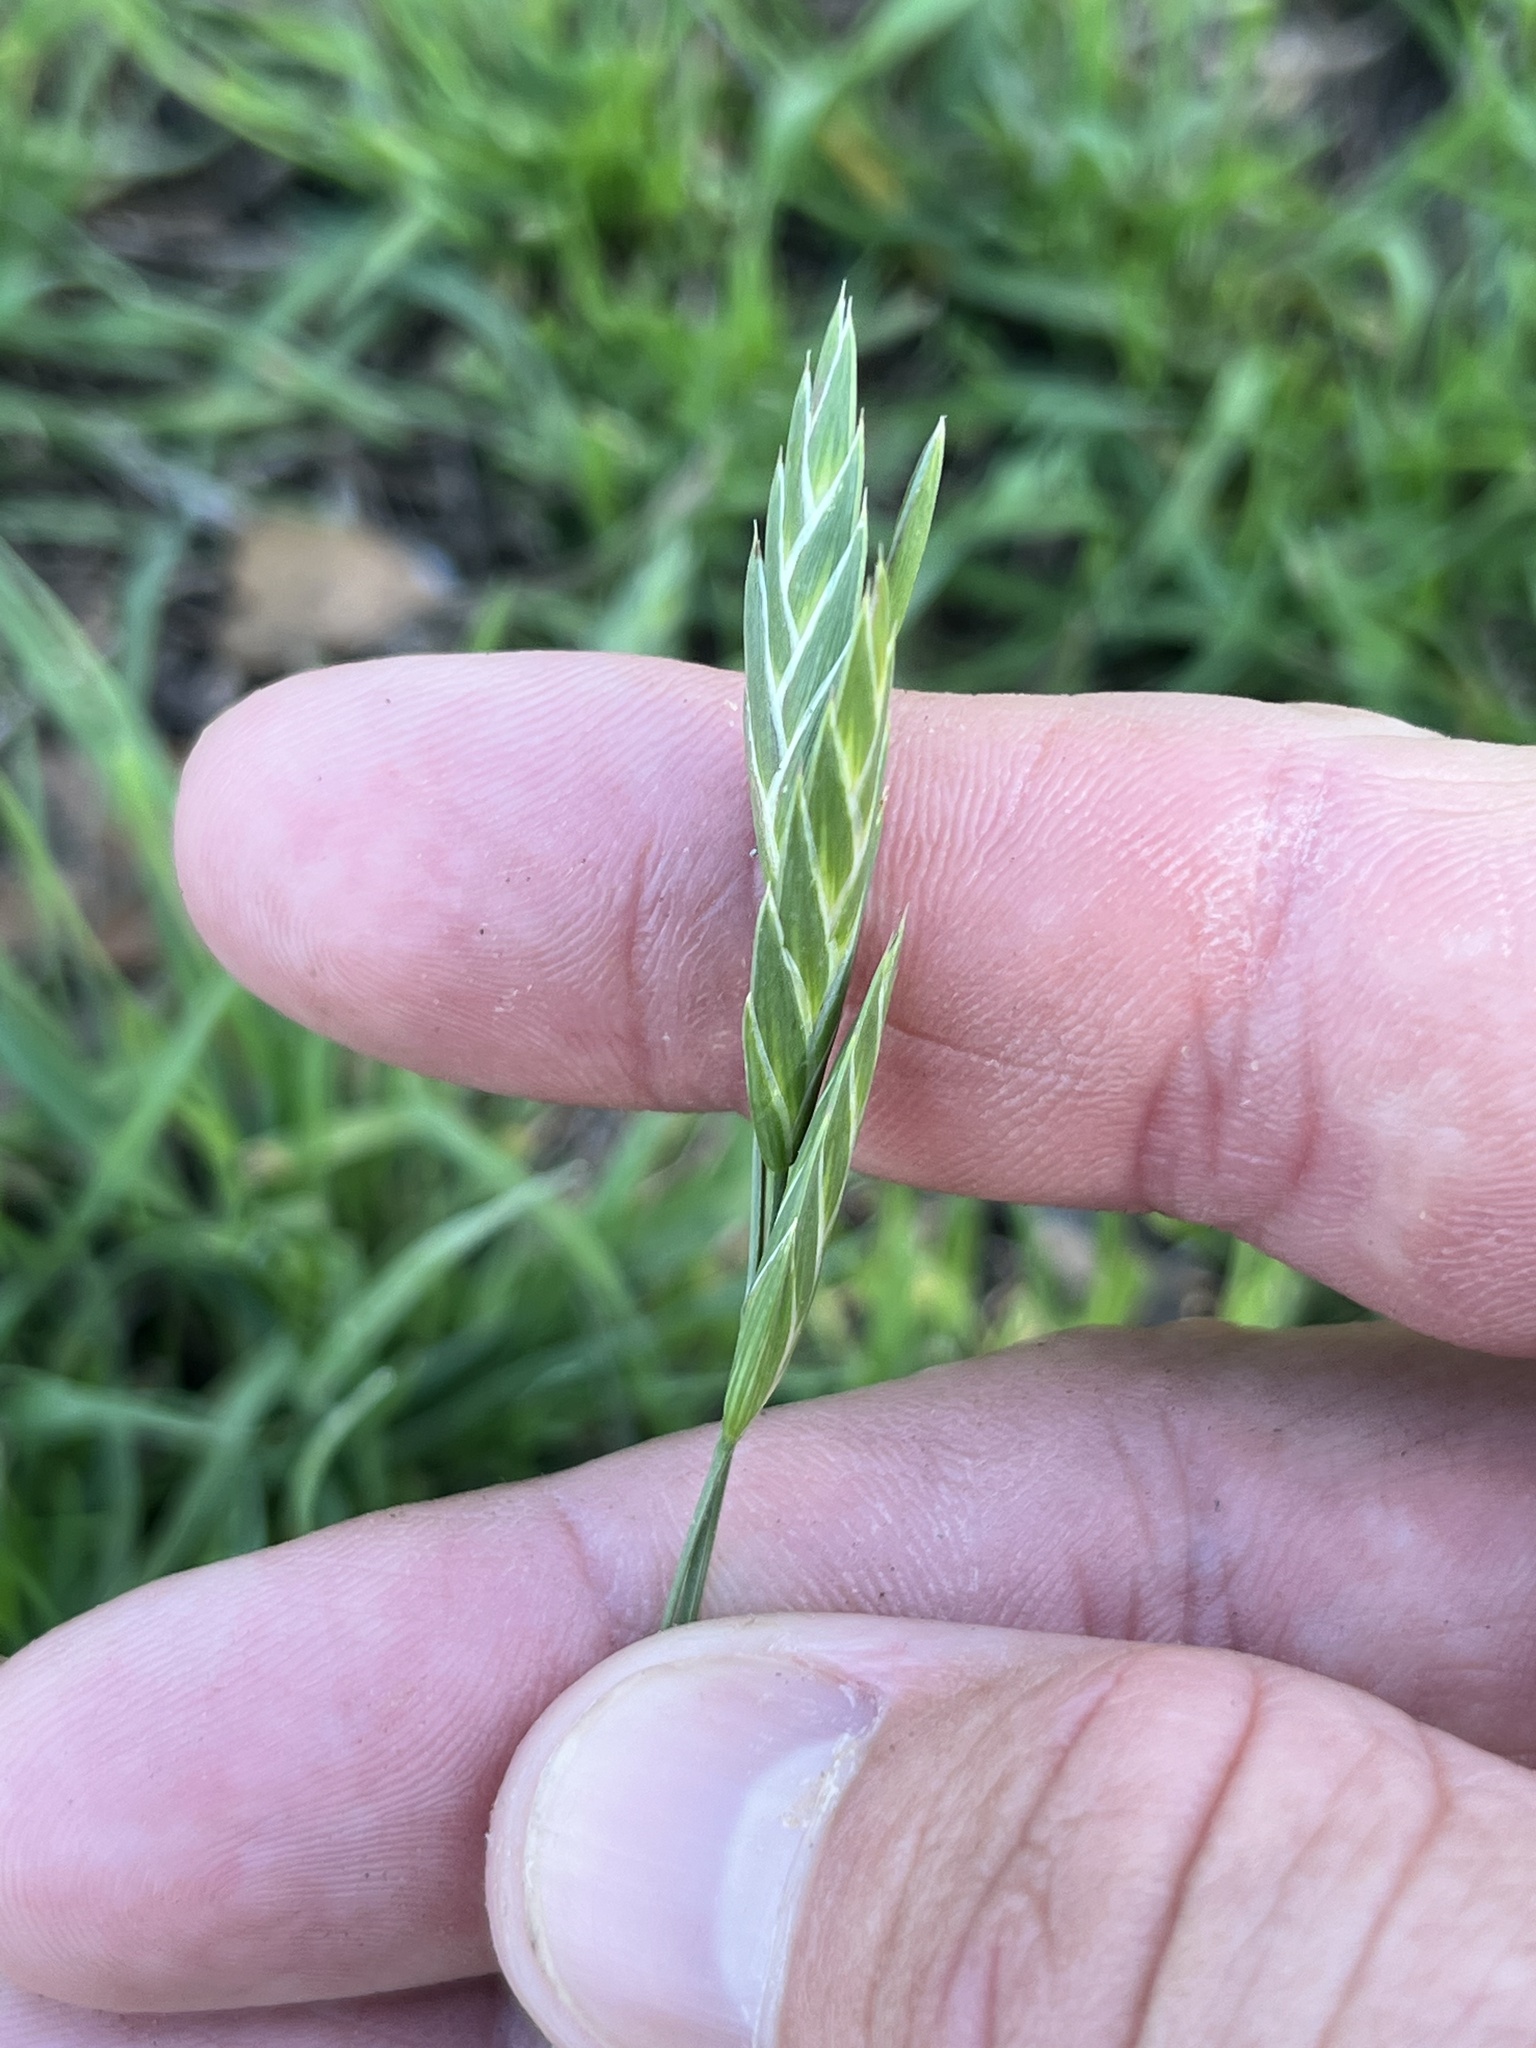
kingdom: Plantae
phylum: Tracheophyta
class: Liliopsida
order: Poales
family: Poaceae
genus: Bromus
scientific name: Bromus catharticus
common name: Rescuegrass
